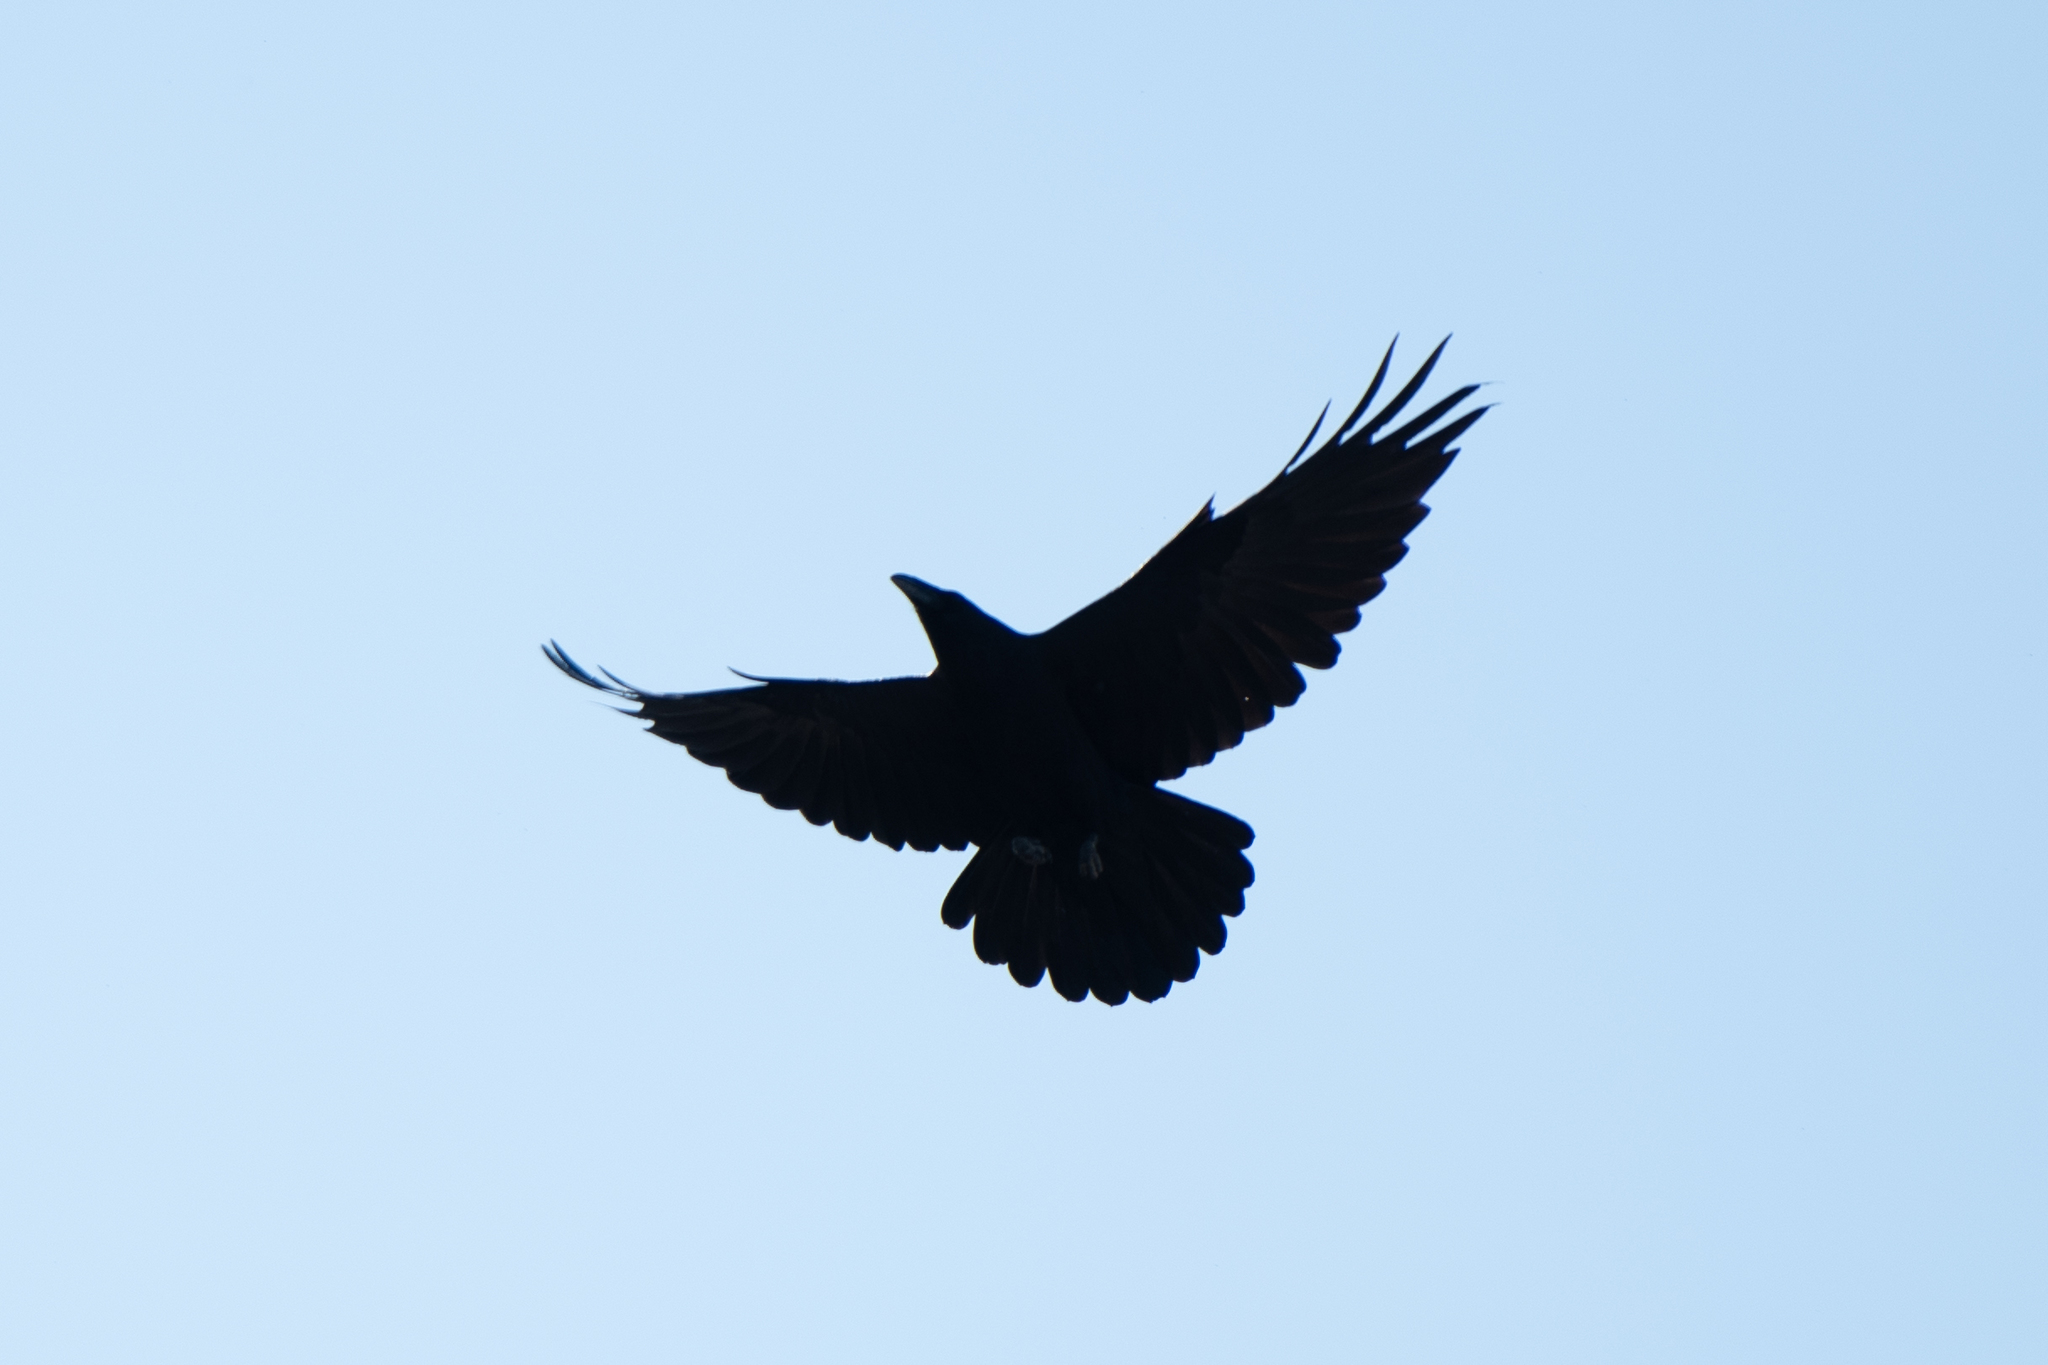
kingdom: Animalia
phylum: Chordata
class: Aves
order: Passeriformes
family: Corvidae
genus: Corvus
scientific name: Corvus corax
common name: Common raven
